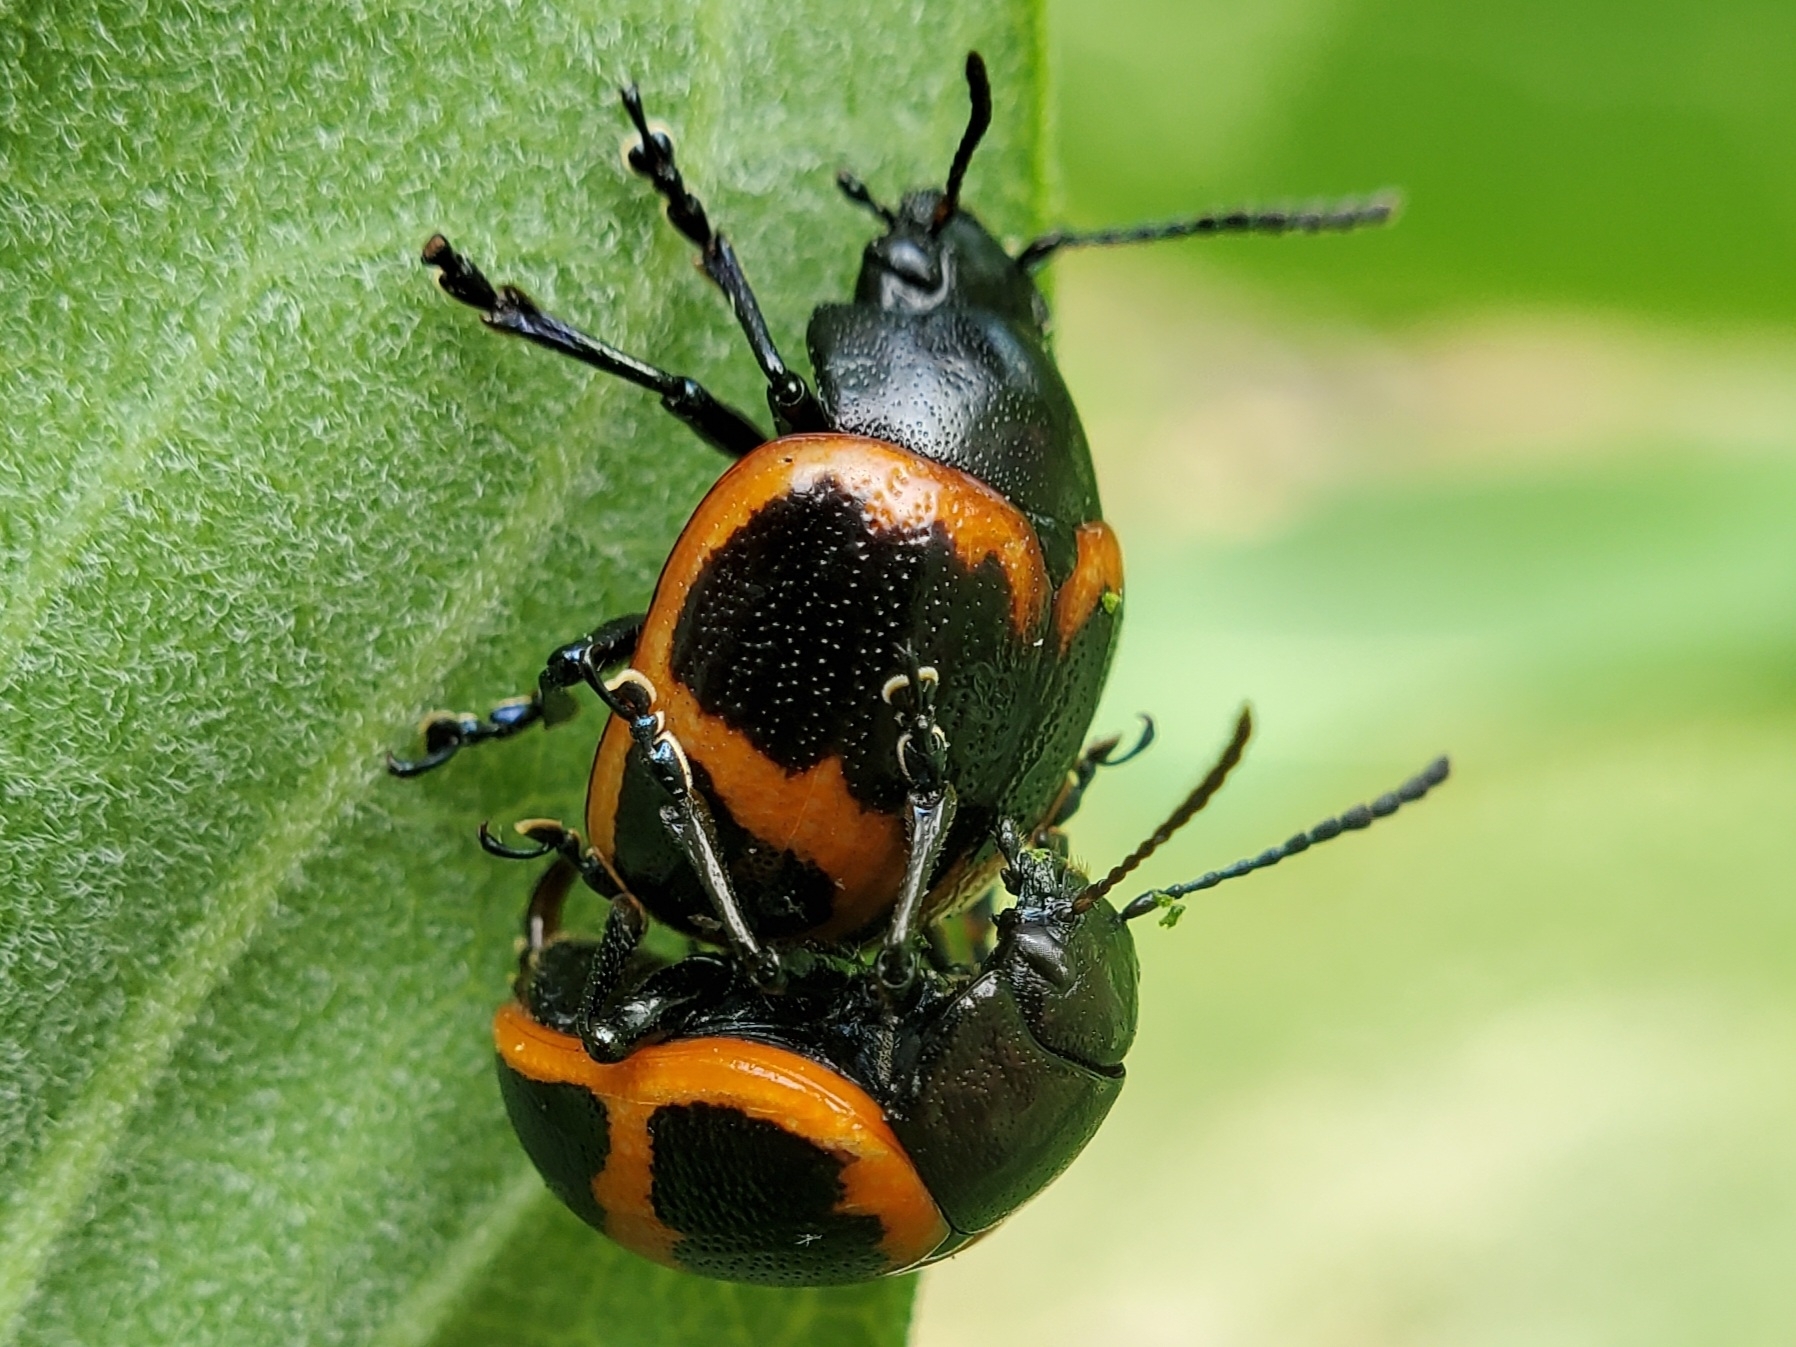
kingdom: Animalia
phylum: Arthropoda
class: Insecta
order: Coleoptera
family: Chrysomelidae
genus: Labidomera
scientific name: Labidomera clivicollis
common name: Swamp milkweed leaf beetle
